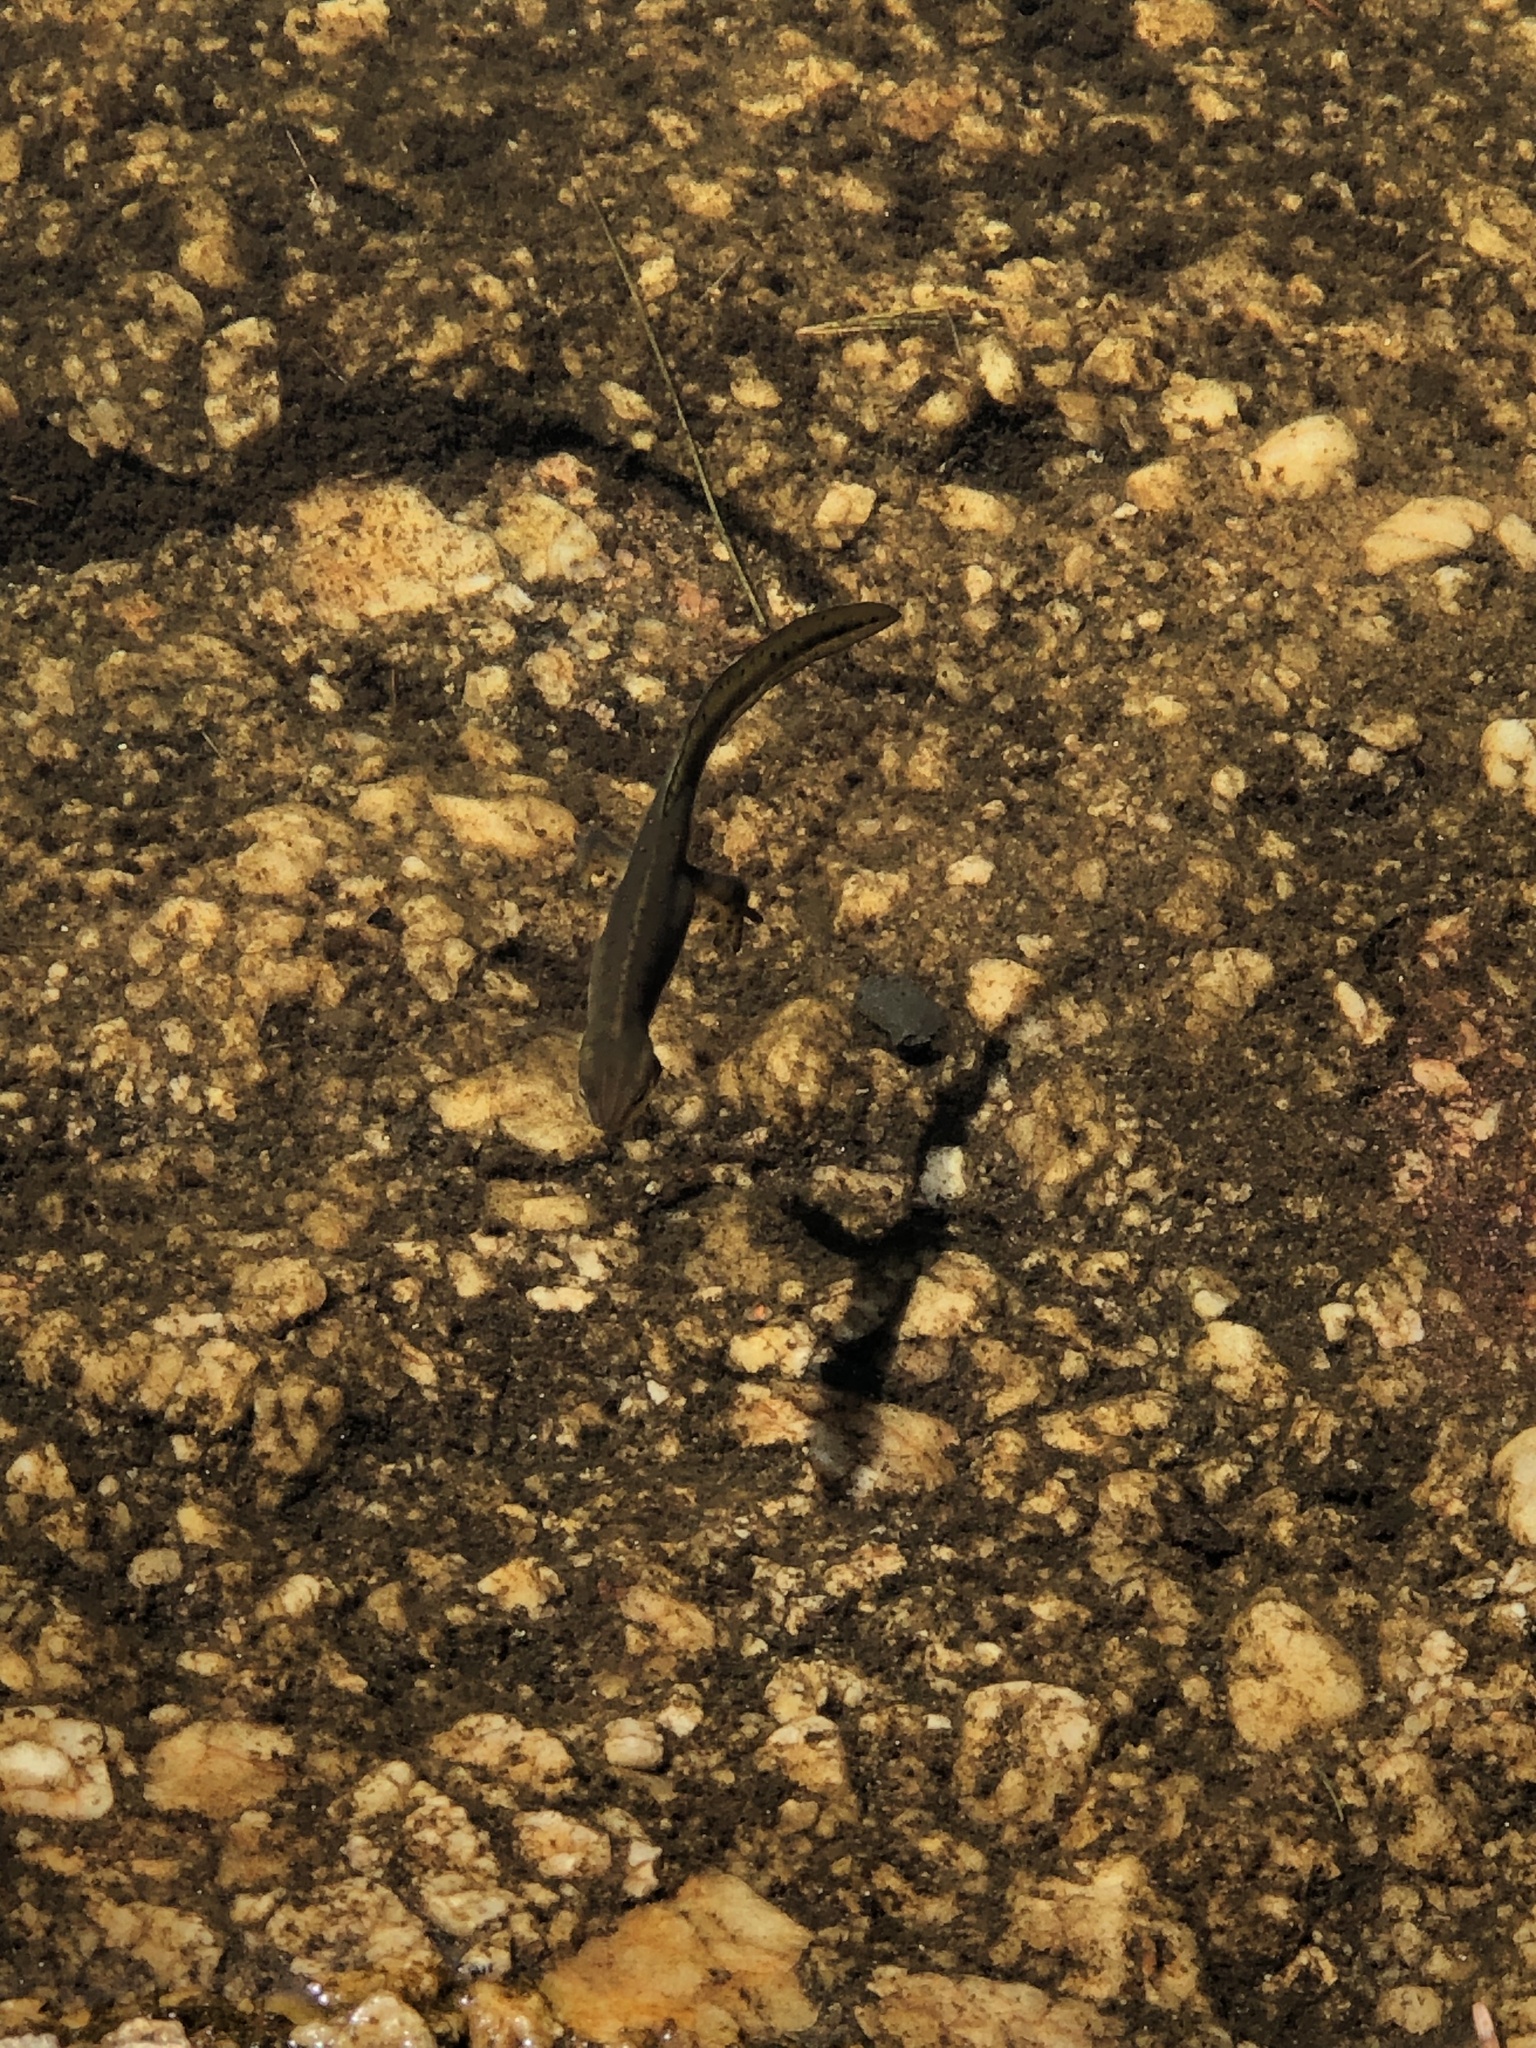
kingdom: Animalia
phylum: Chordata
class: Amphibia
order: Caudata
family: Salamandridae
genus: Notophthalmus
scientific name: Notophthalmus viridescens
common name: Eastern newt
